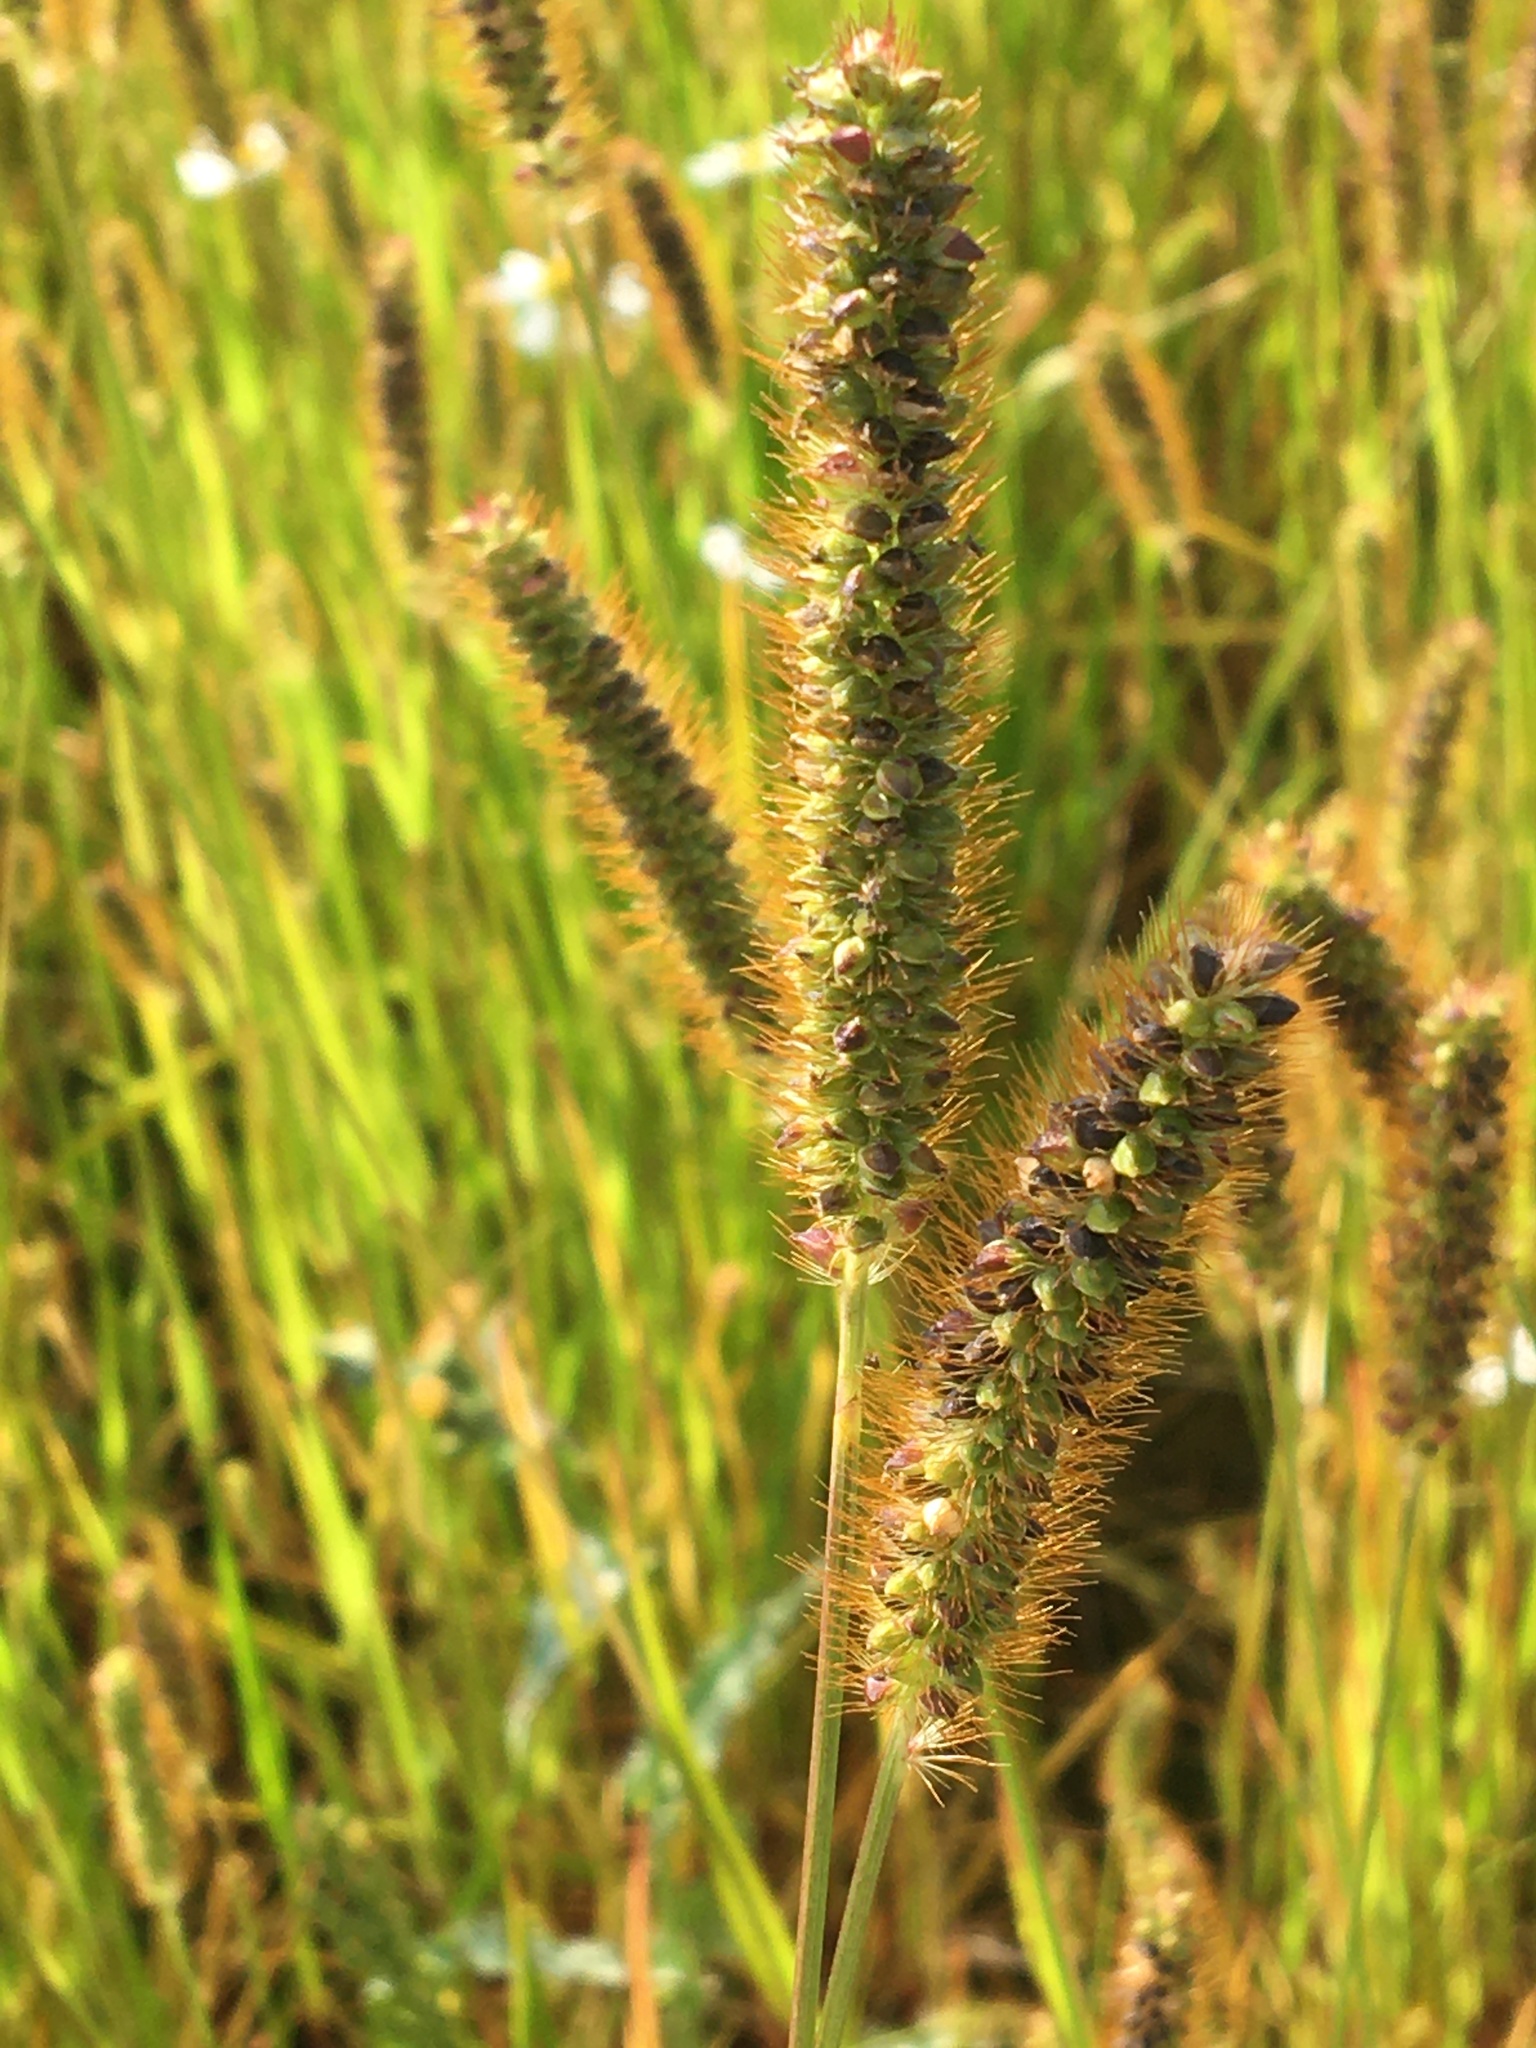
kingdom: Plantae
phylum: Tracheophyta
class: Liliopsida
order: Poales
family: Poaceae
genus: Setaria
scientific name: Setaria pumila
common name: Yellow bristle-grass
